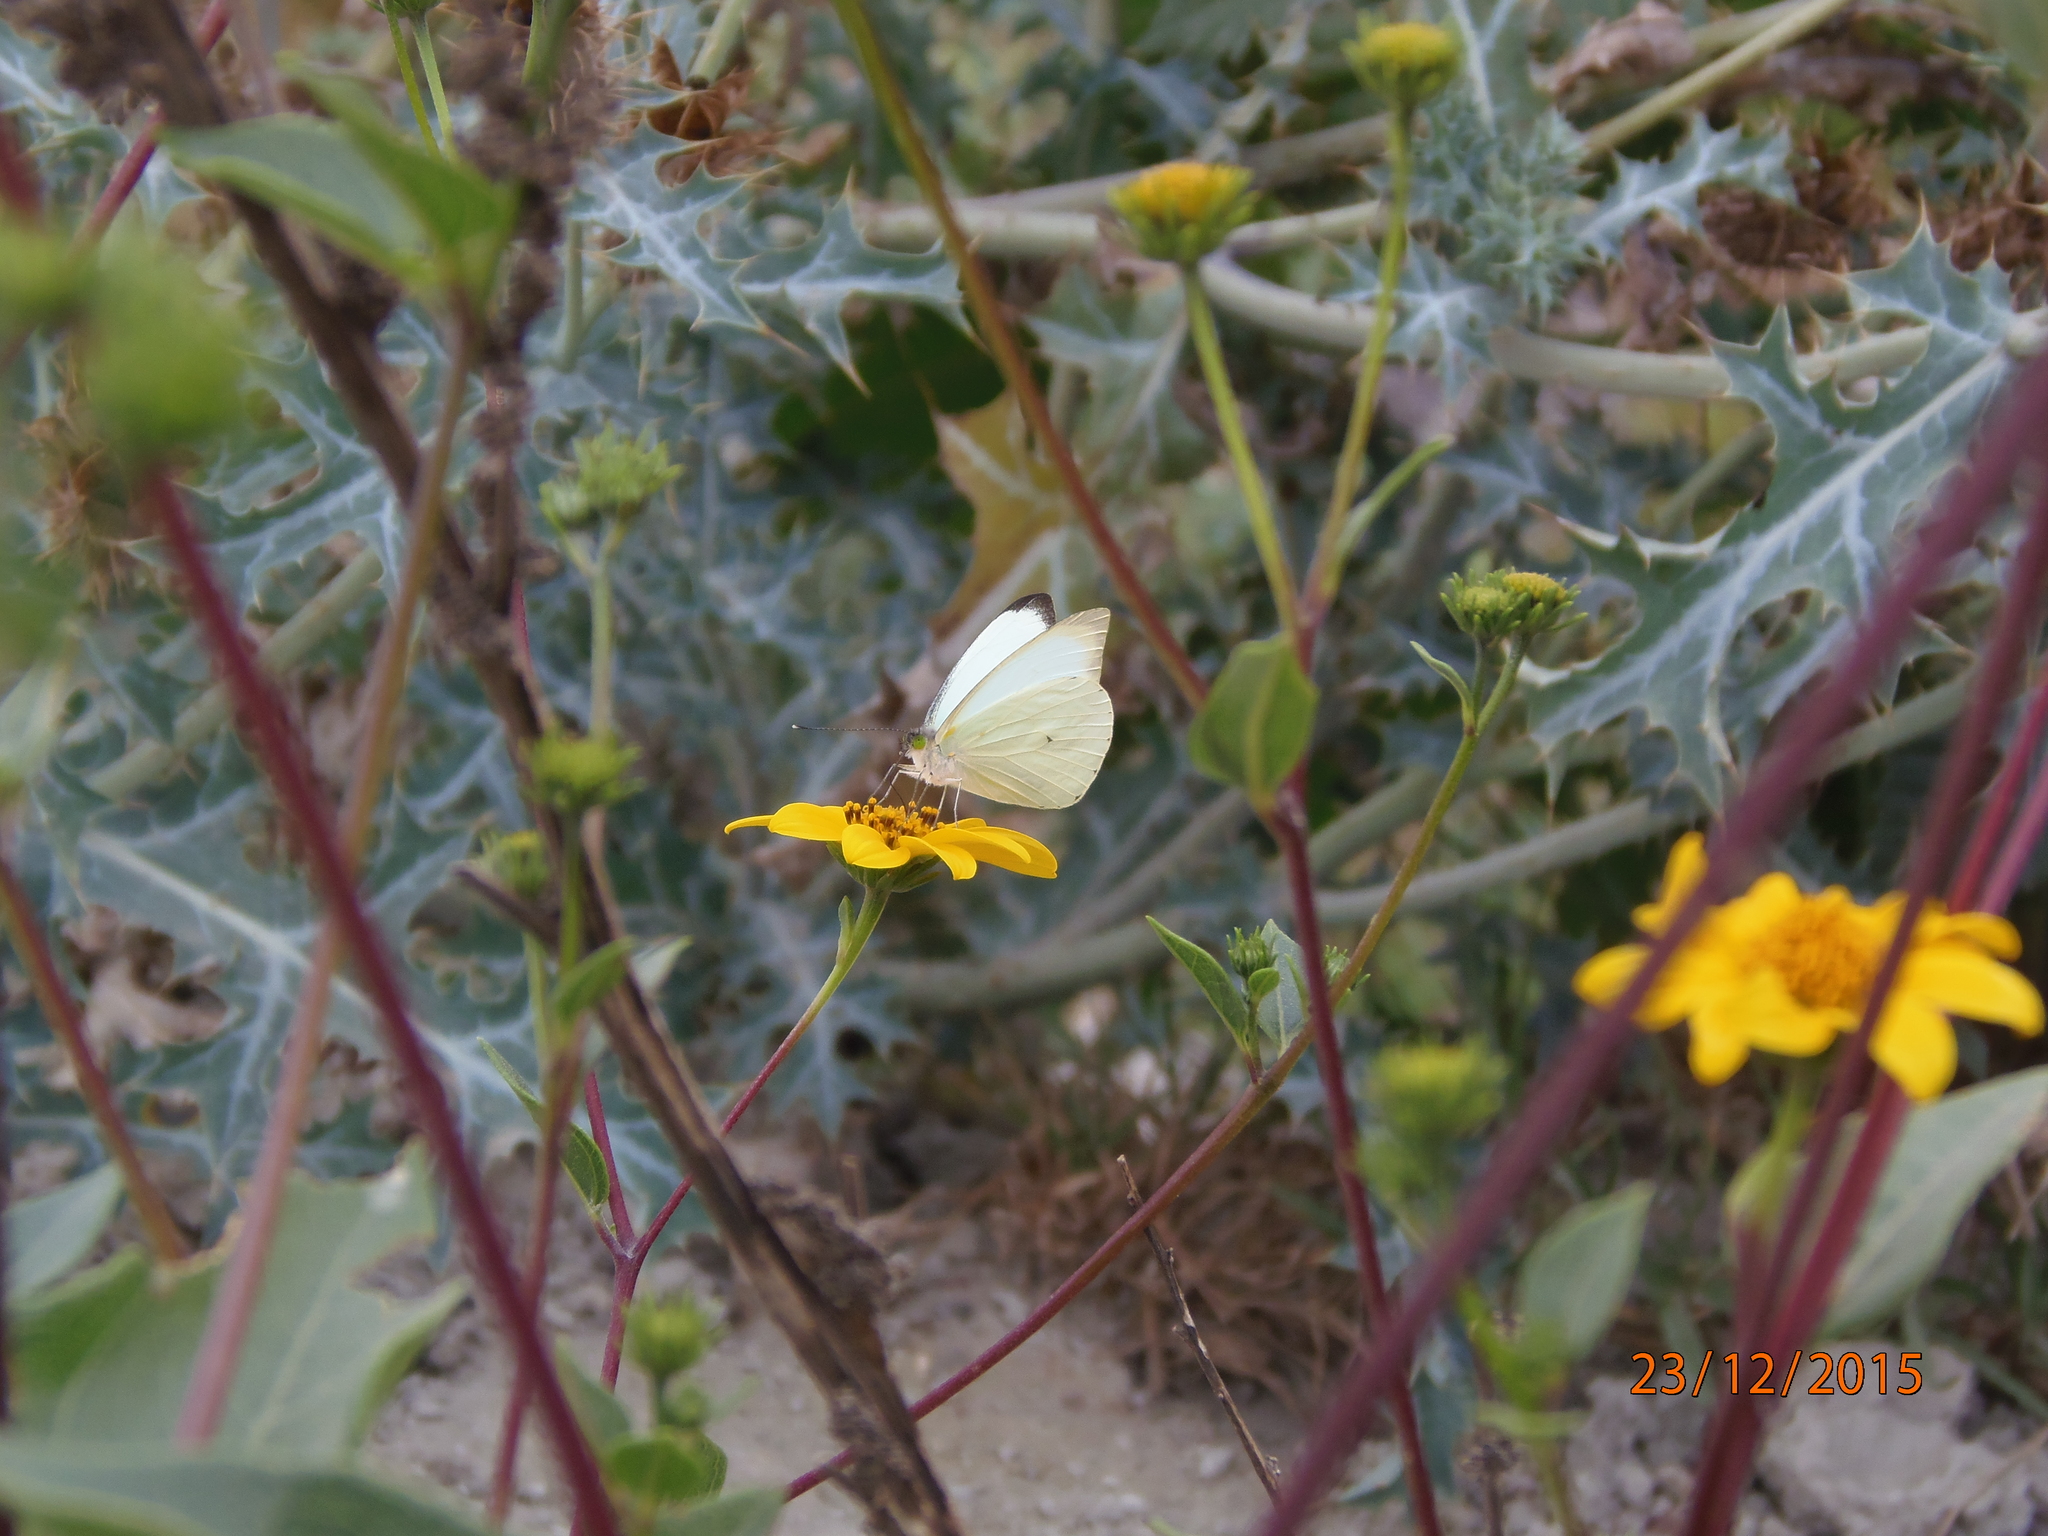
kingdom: Animalia
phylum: Arthropoda
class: Insecta
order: Lepidoptera
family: Pieridae
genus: Leptophobia
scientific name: Leptophobia aripa
